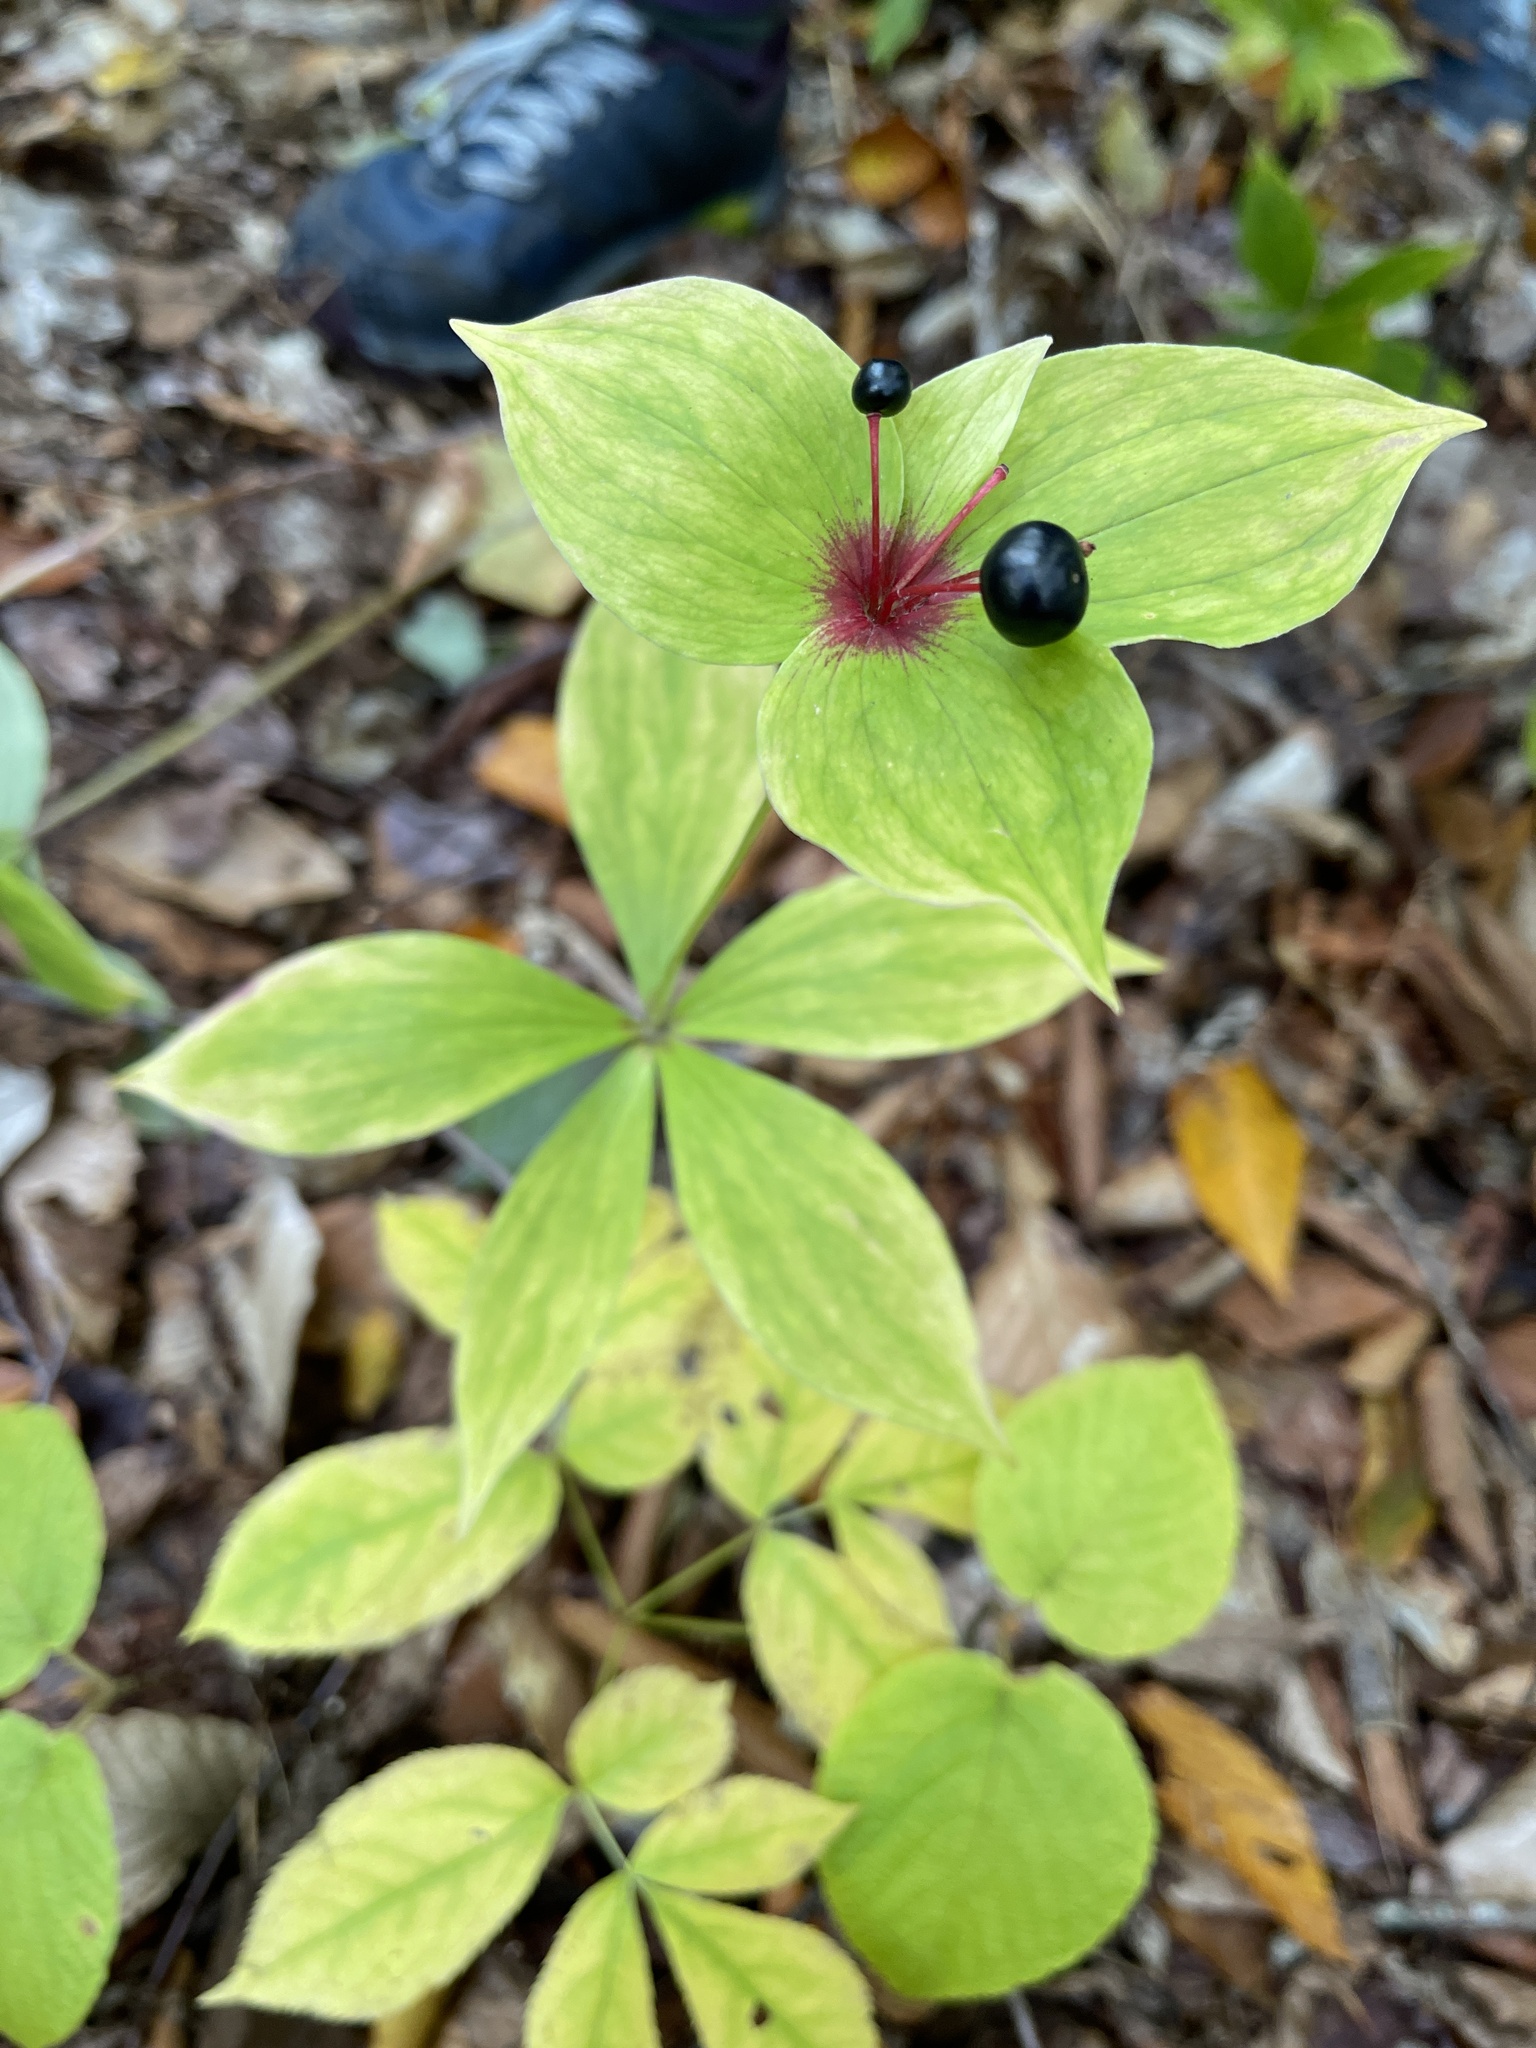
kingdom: Plantae
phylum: Tracheophyta
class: Liliopsida
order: Liliales
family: Liliaceae
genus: Medeola
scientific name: Medeola virginiana
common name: Indian cucumber-root
